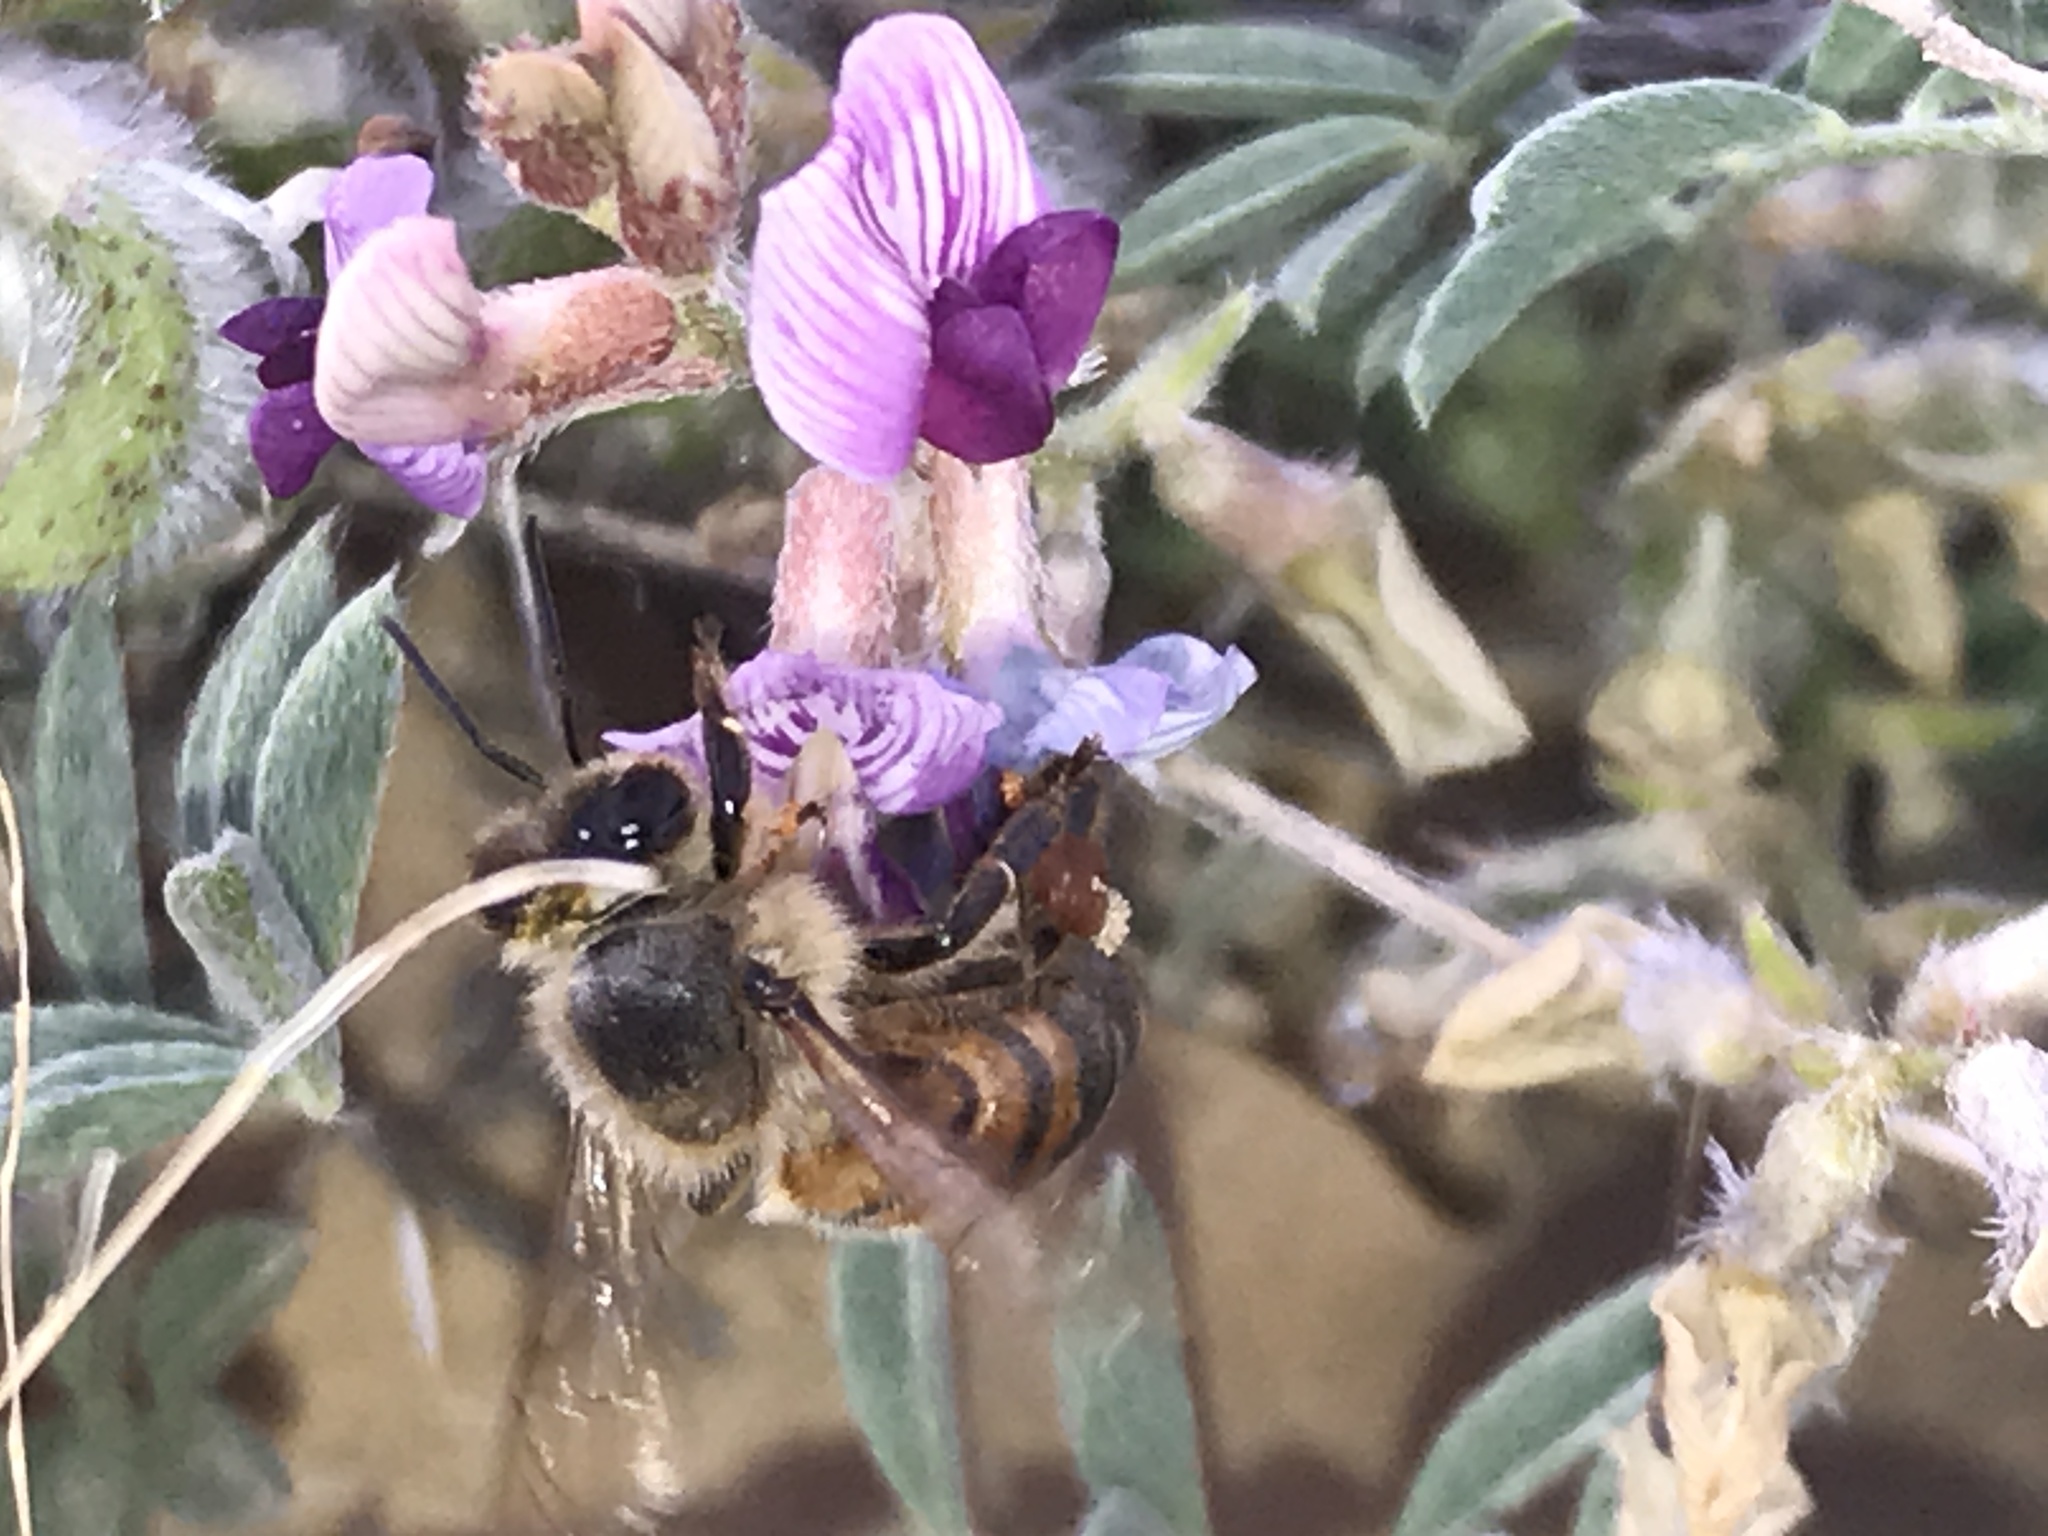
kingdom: Animalia
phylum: Arthropoda
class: Insecta
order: Hymenoptera
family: Apidae
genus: Apis
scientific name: Apis mellifera
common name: Honey bee
